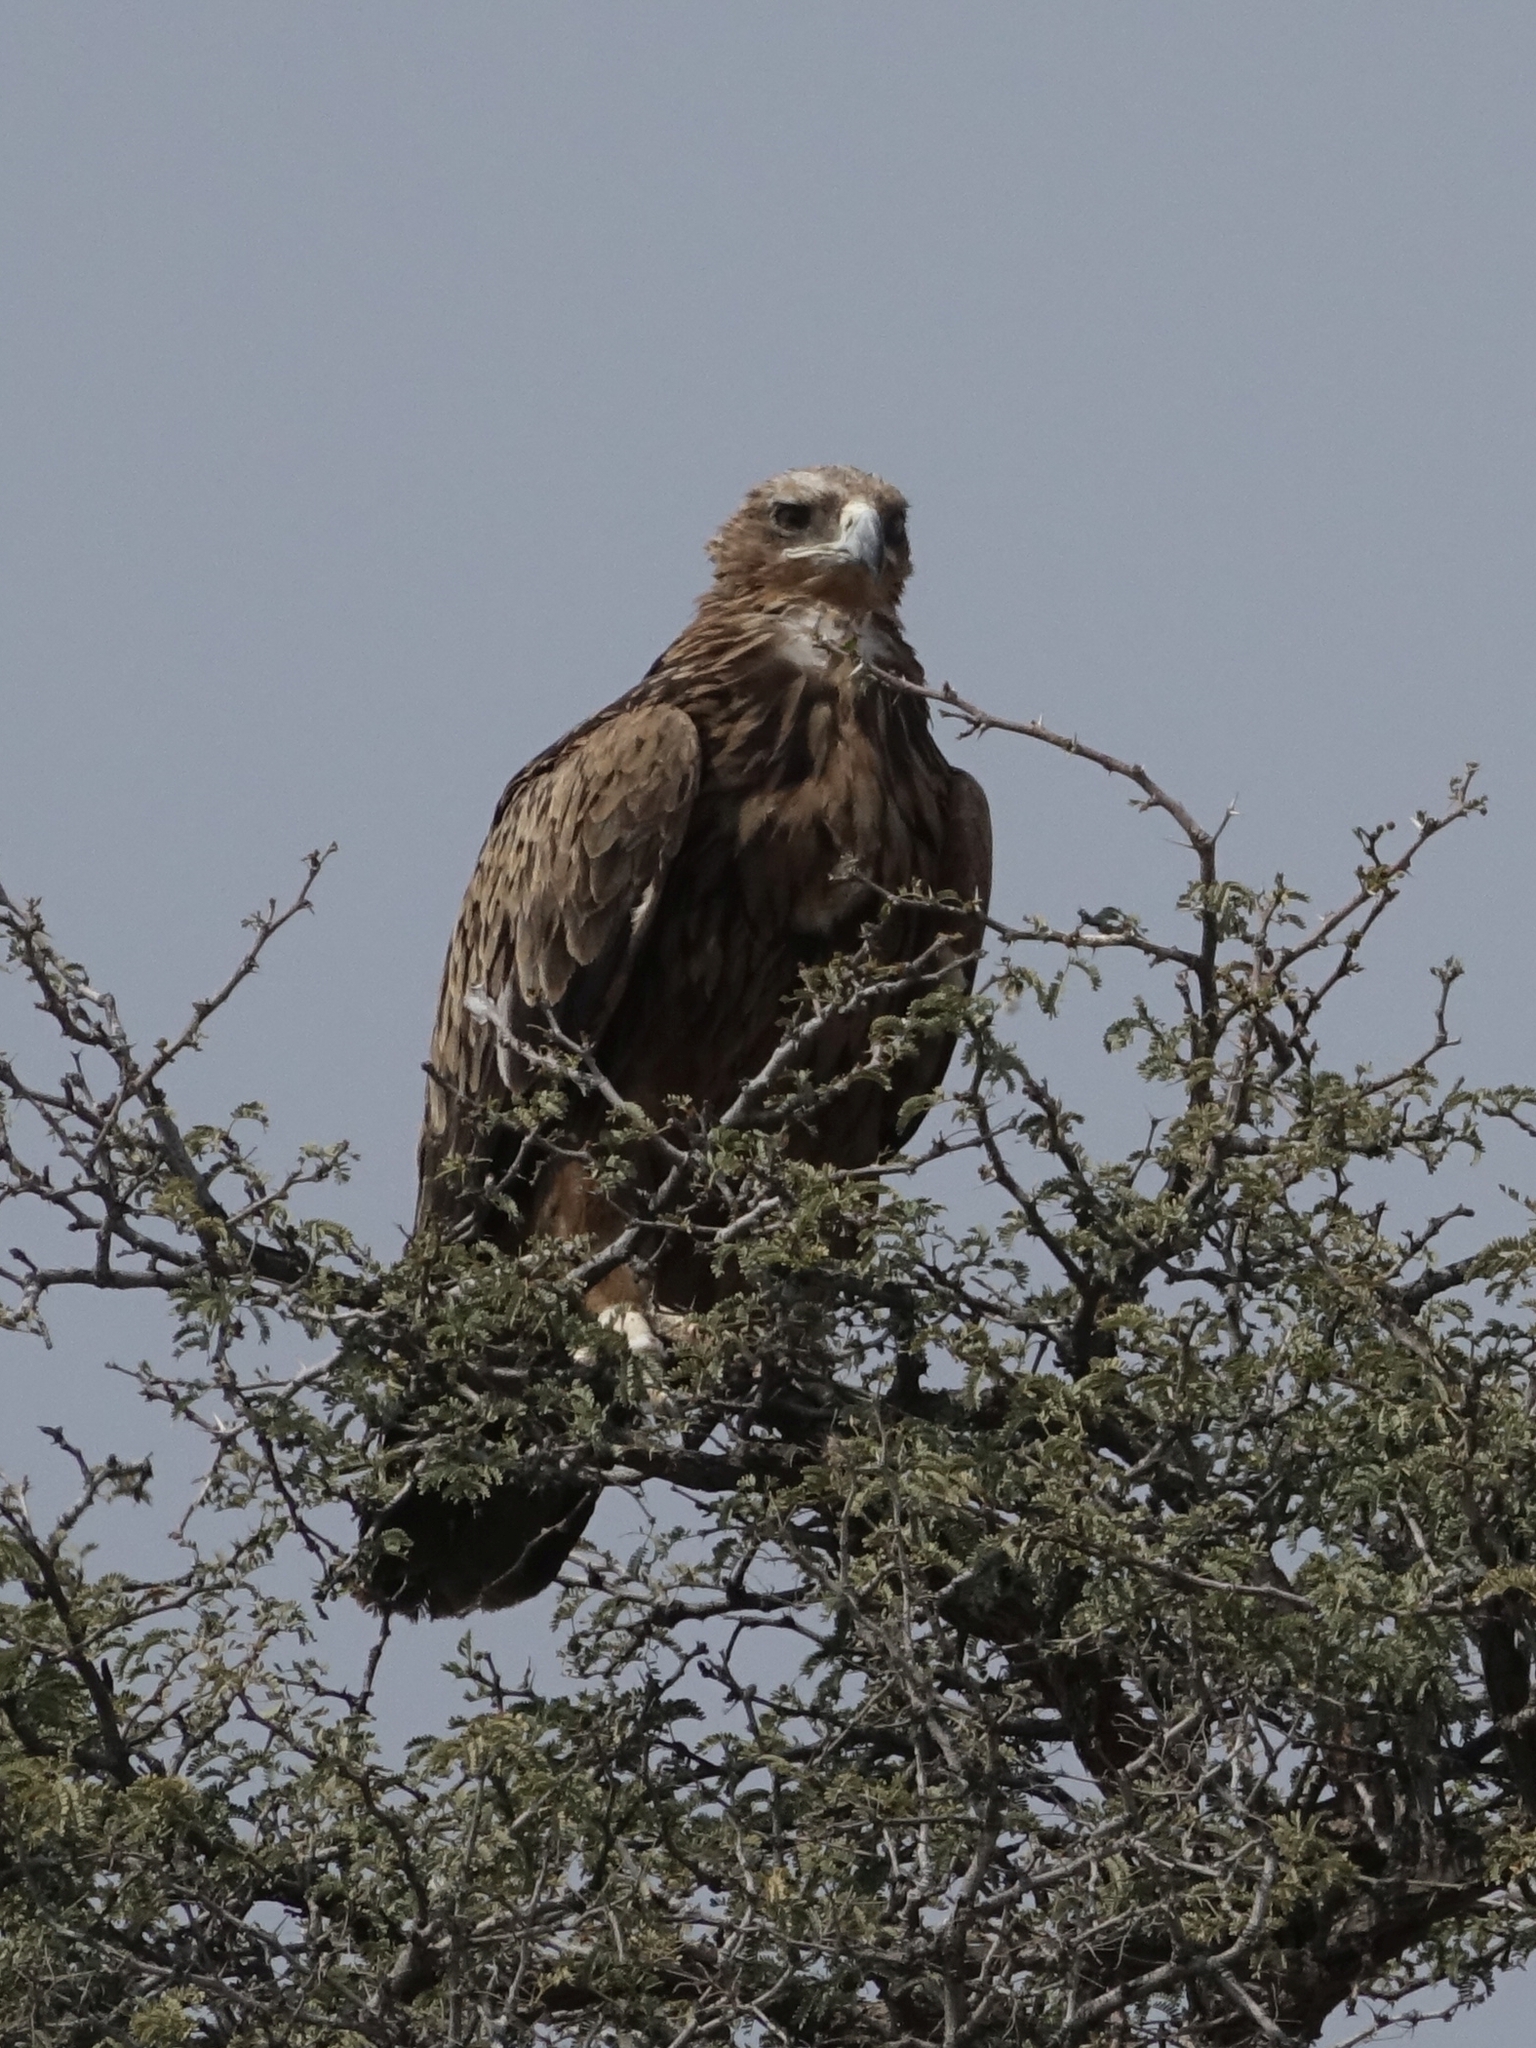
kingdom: Animalia
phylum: Chordata
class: Aves
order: Accipitriformes
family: Accipitridae
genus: Aquila
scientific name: Aquila rapax
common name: Tawny eagle
